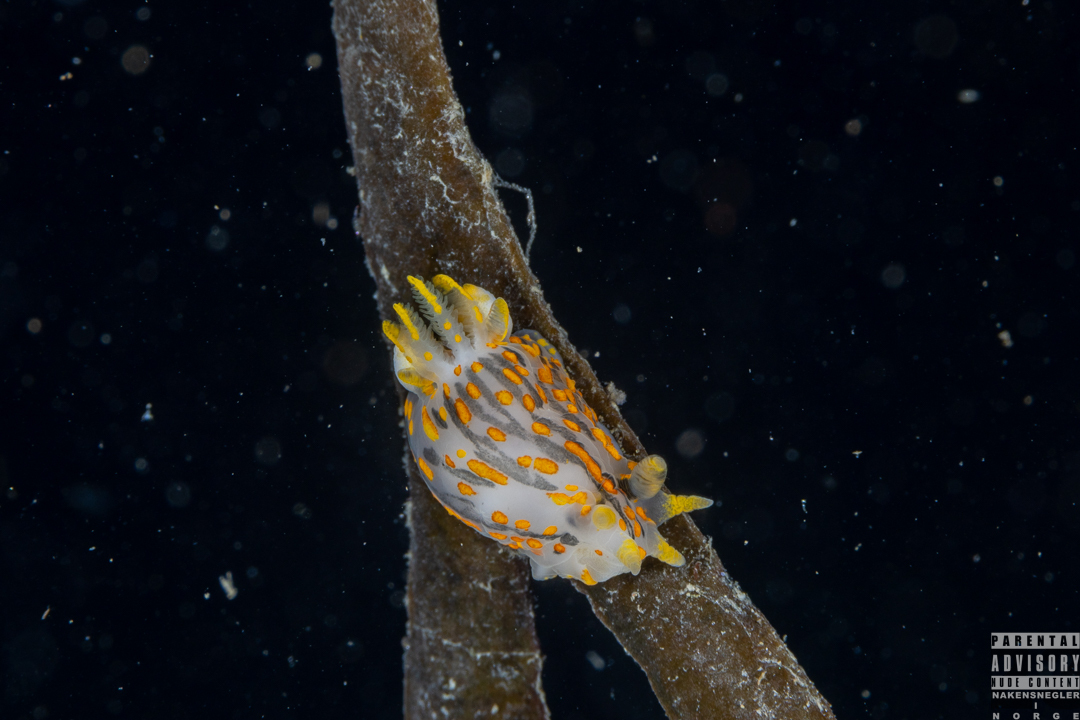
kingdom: Animalia
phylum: Mollusca
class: Gastropoda
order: Nudibranchia
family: Polyceridae
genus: Polycera
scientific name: Polycera quadrilineata
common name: Four-striped polycera
